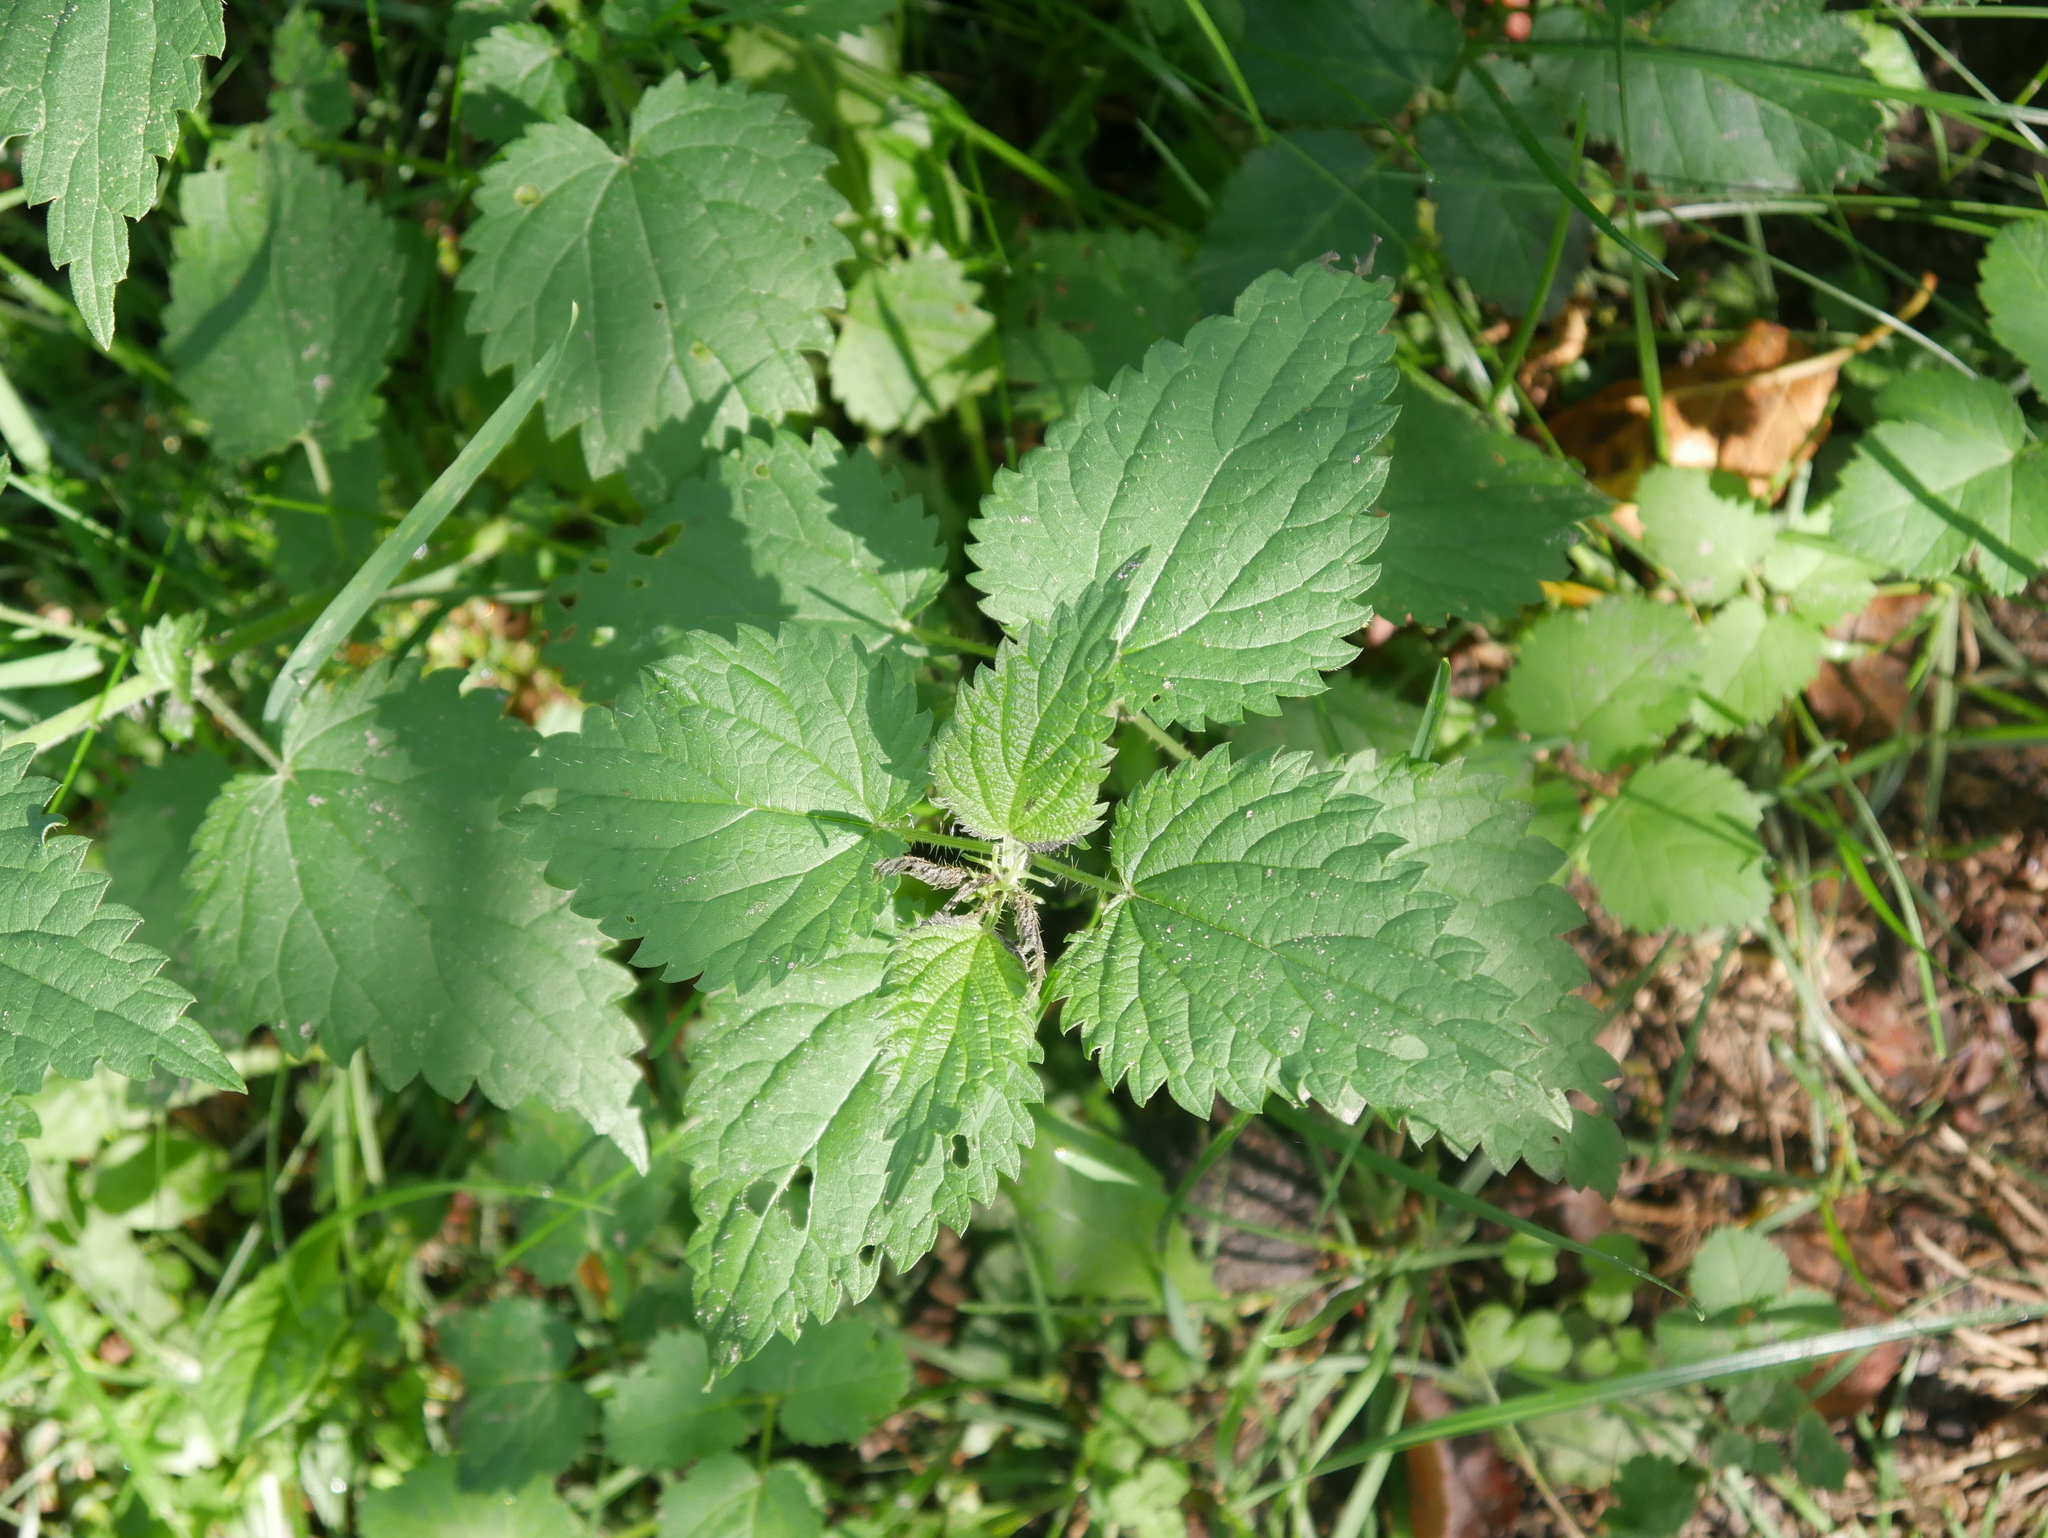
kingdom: Plantae
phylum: Tracheophyta
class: Magnoliopsida
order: Rosales
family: Urticaceae
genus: Urtica
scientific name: Urtica dioica
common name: Common nettle
